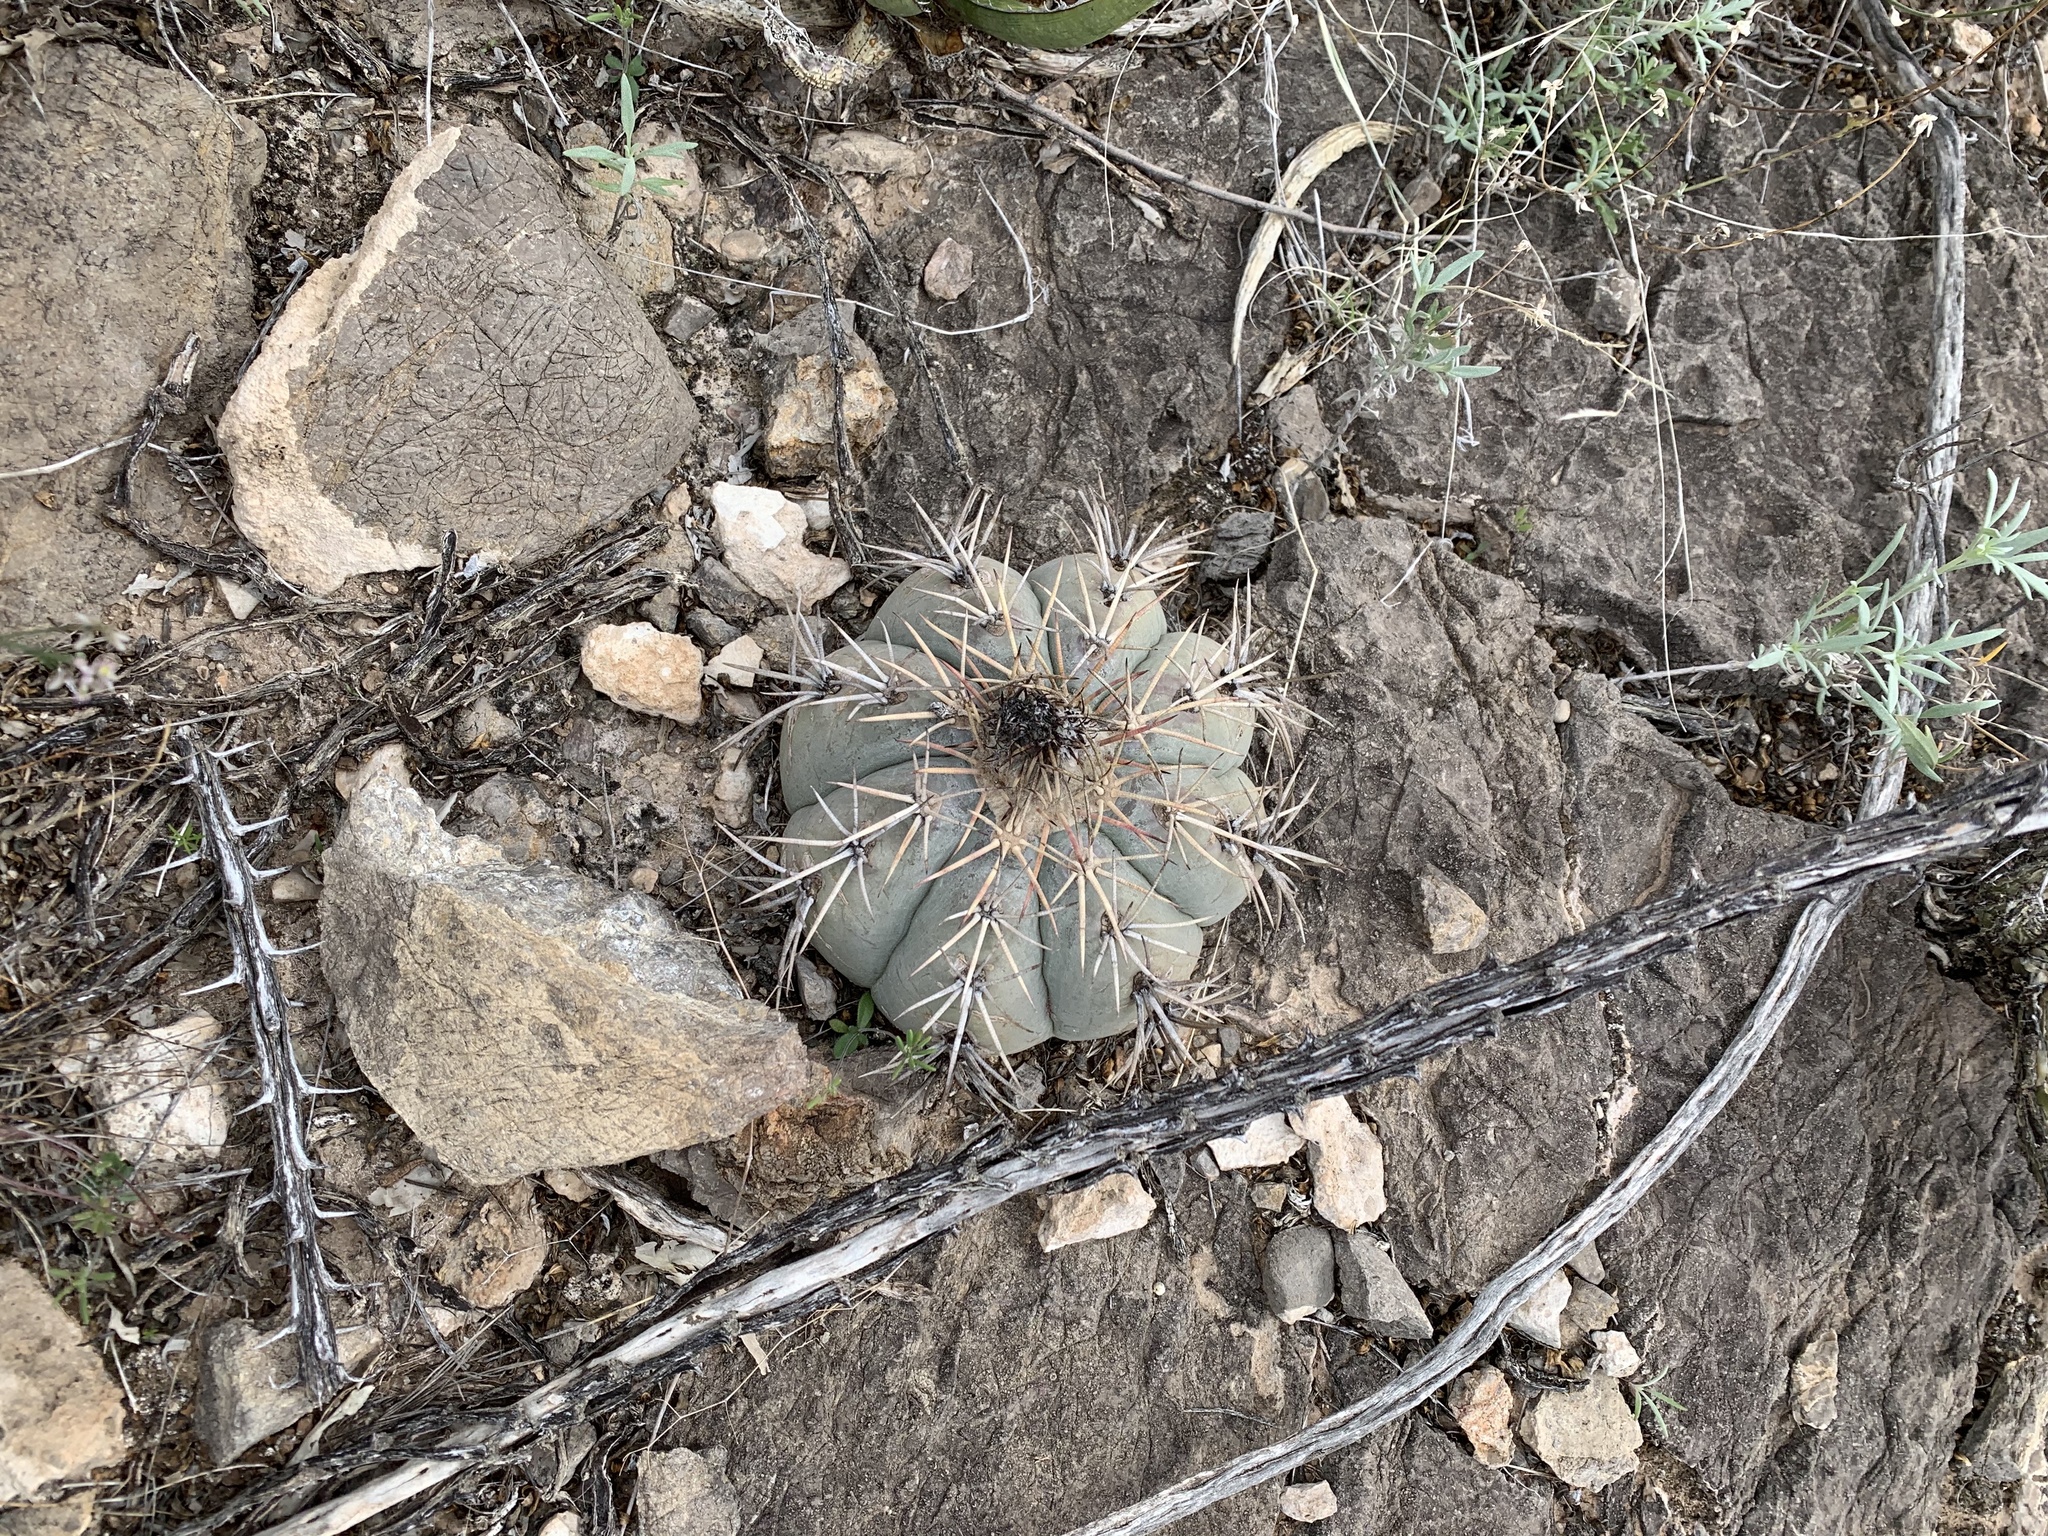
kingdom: Plantae
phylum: Tracheophyta
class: Magnoliopsida
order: Caryophyllales
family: Cactaceae
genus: Echinocactus
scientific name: Echinocactus horizonthalonius
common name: Devilshead
